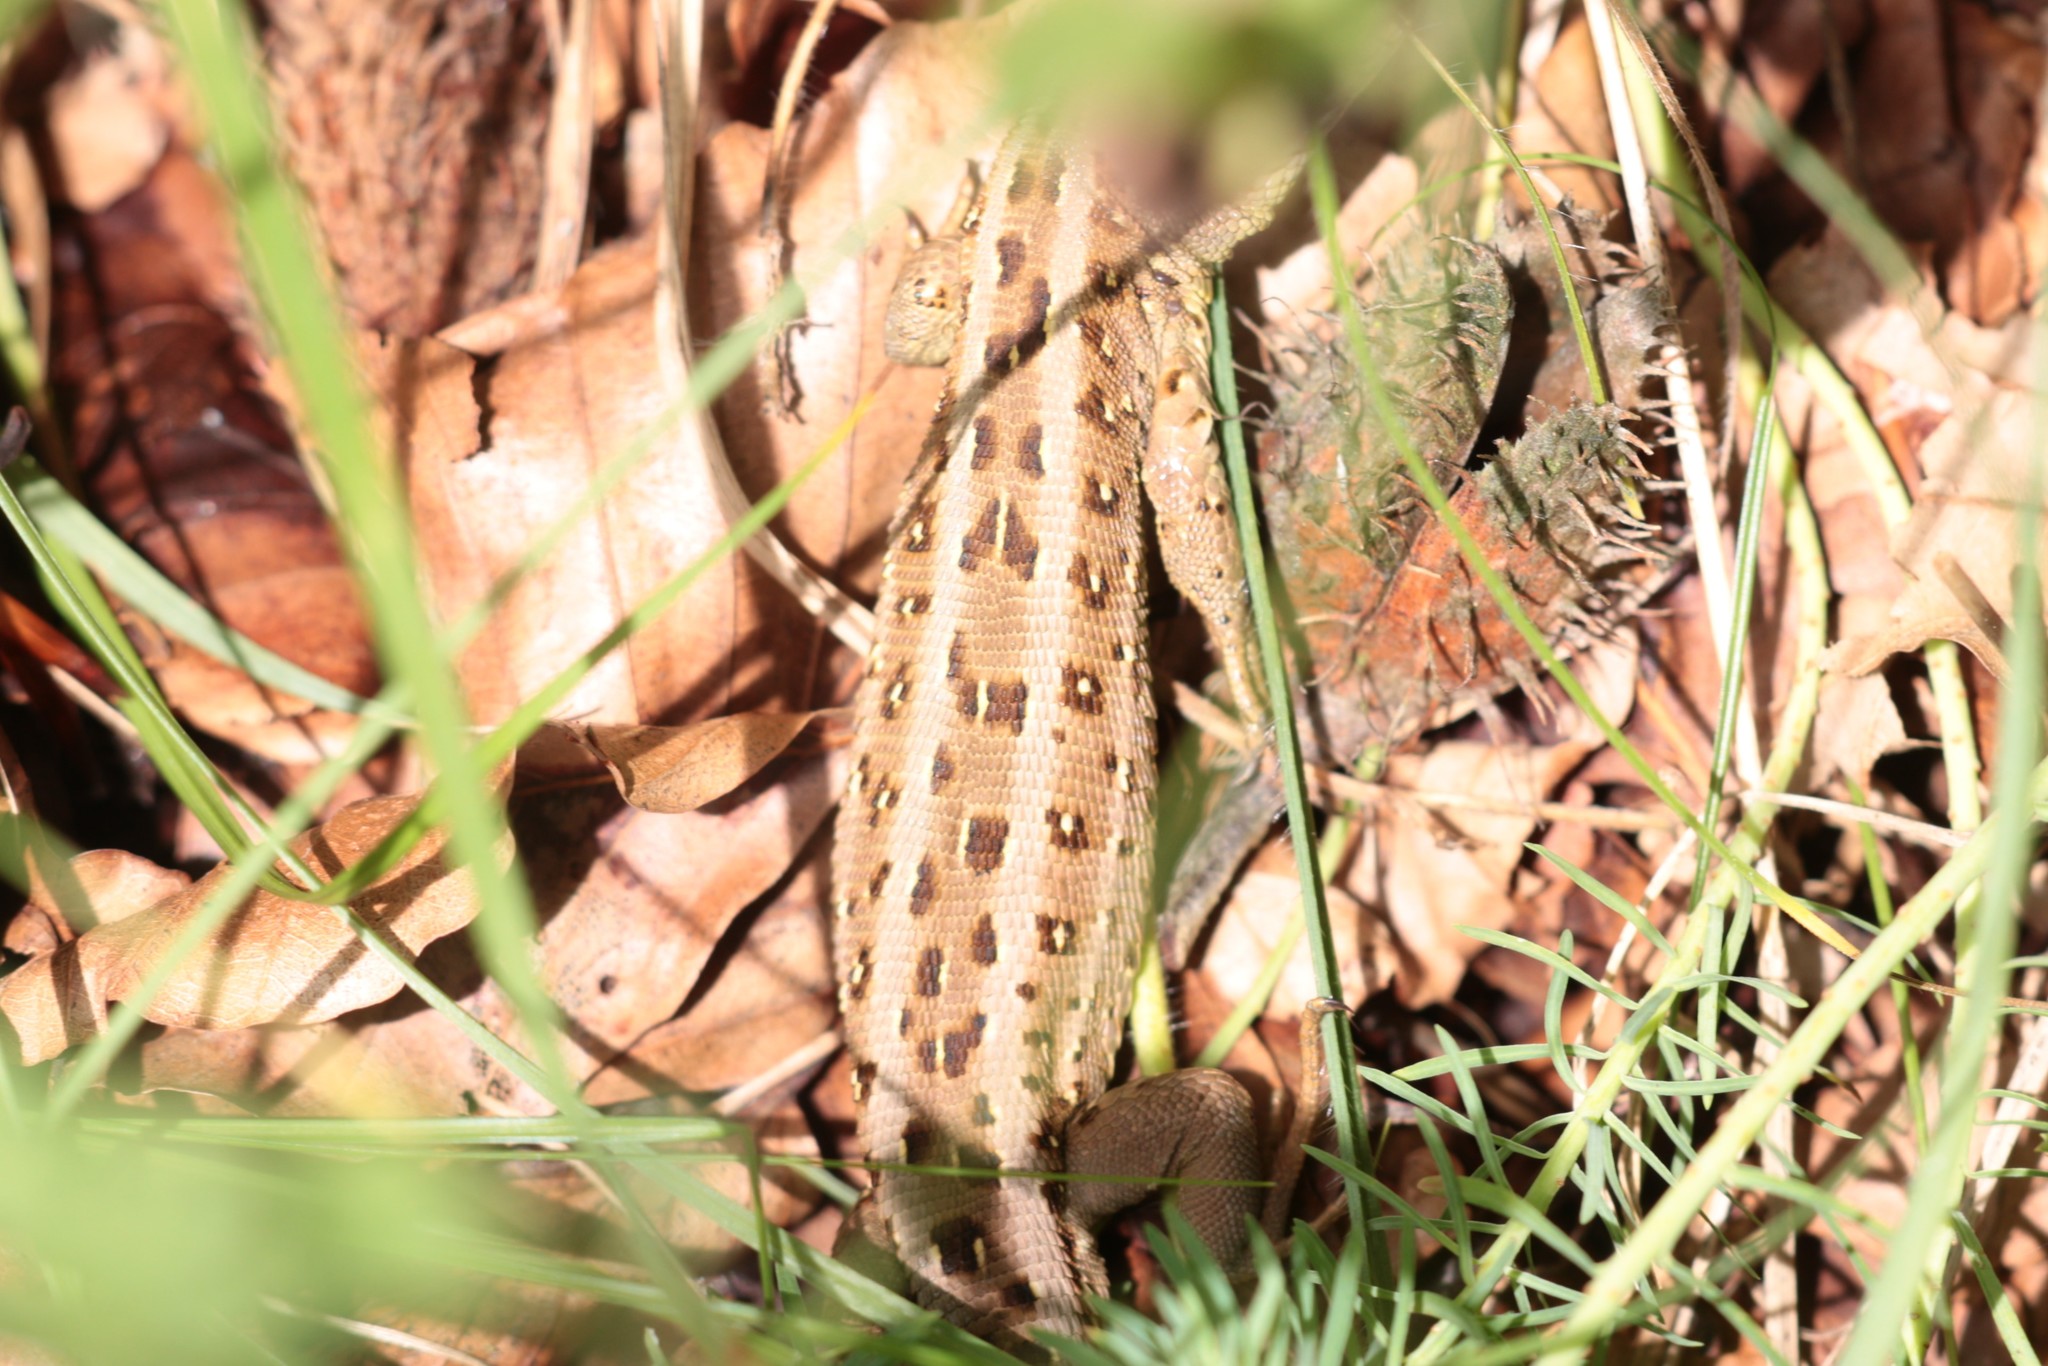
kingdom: Animalia
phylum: Chordata
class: Squamata
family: Lacertidae
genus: Lacerta
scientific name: Lacerta agilis
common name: Sand lizard
